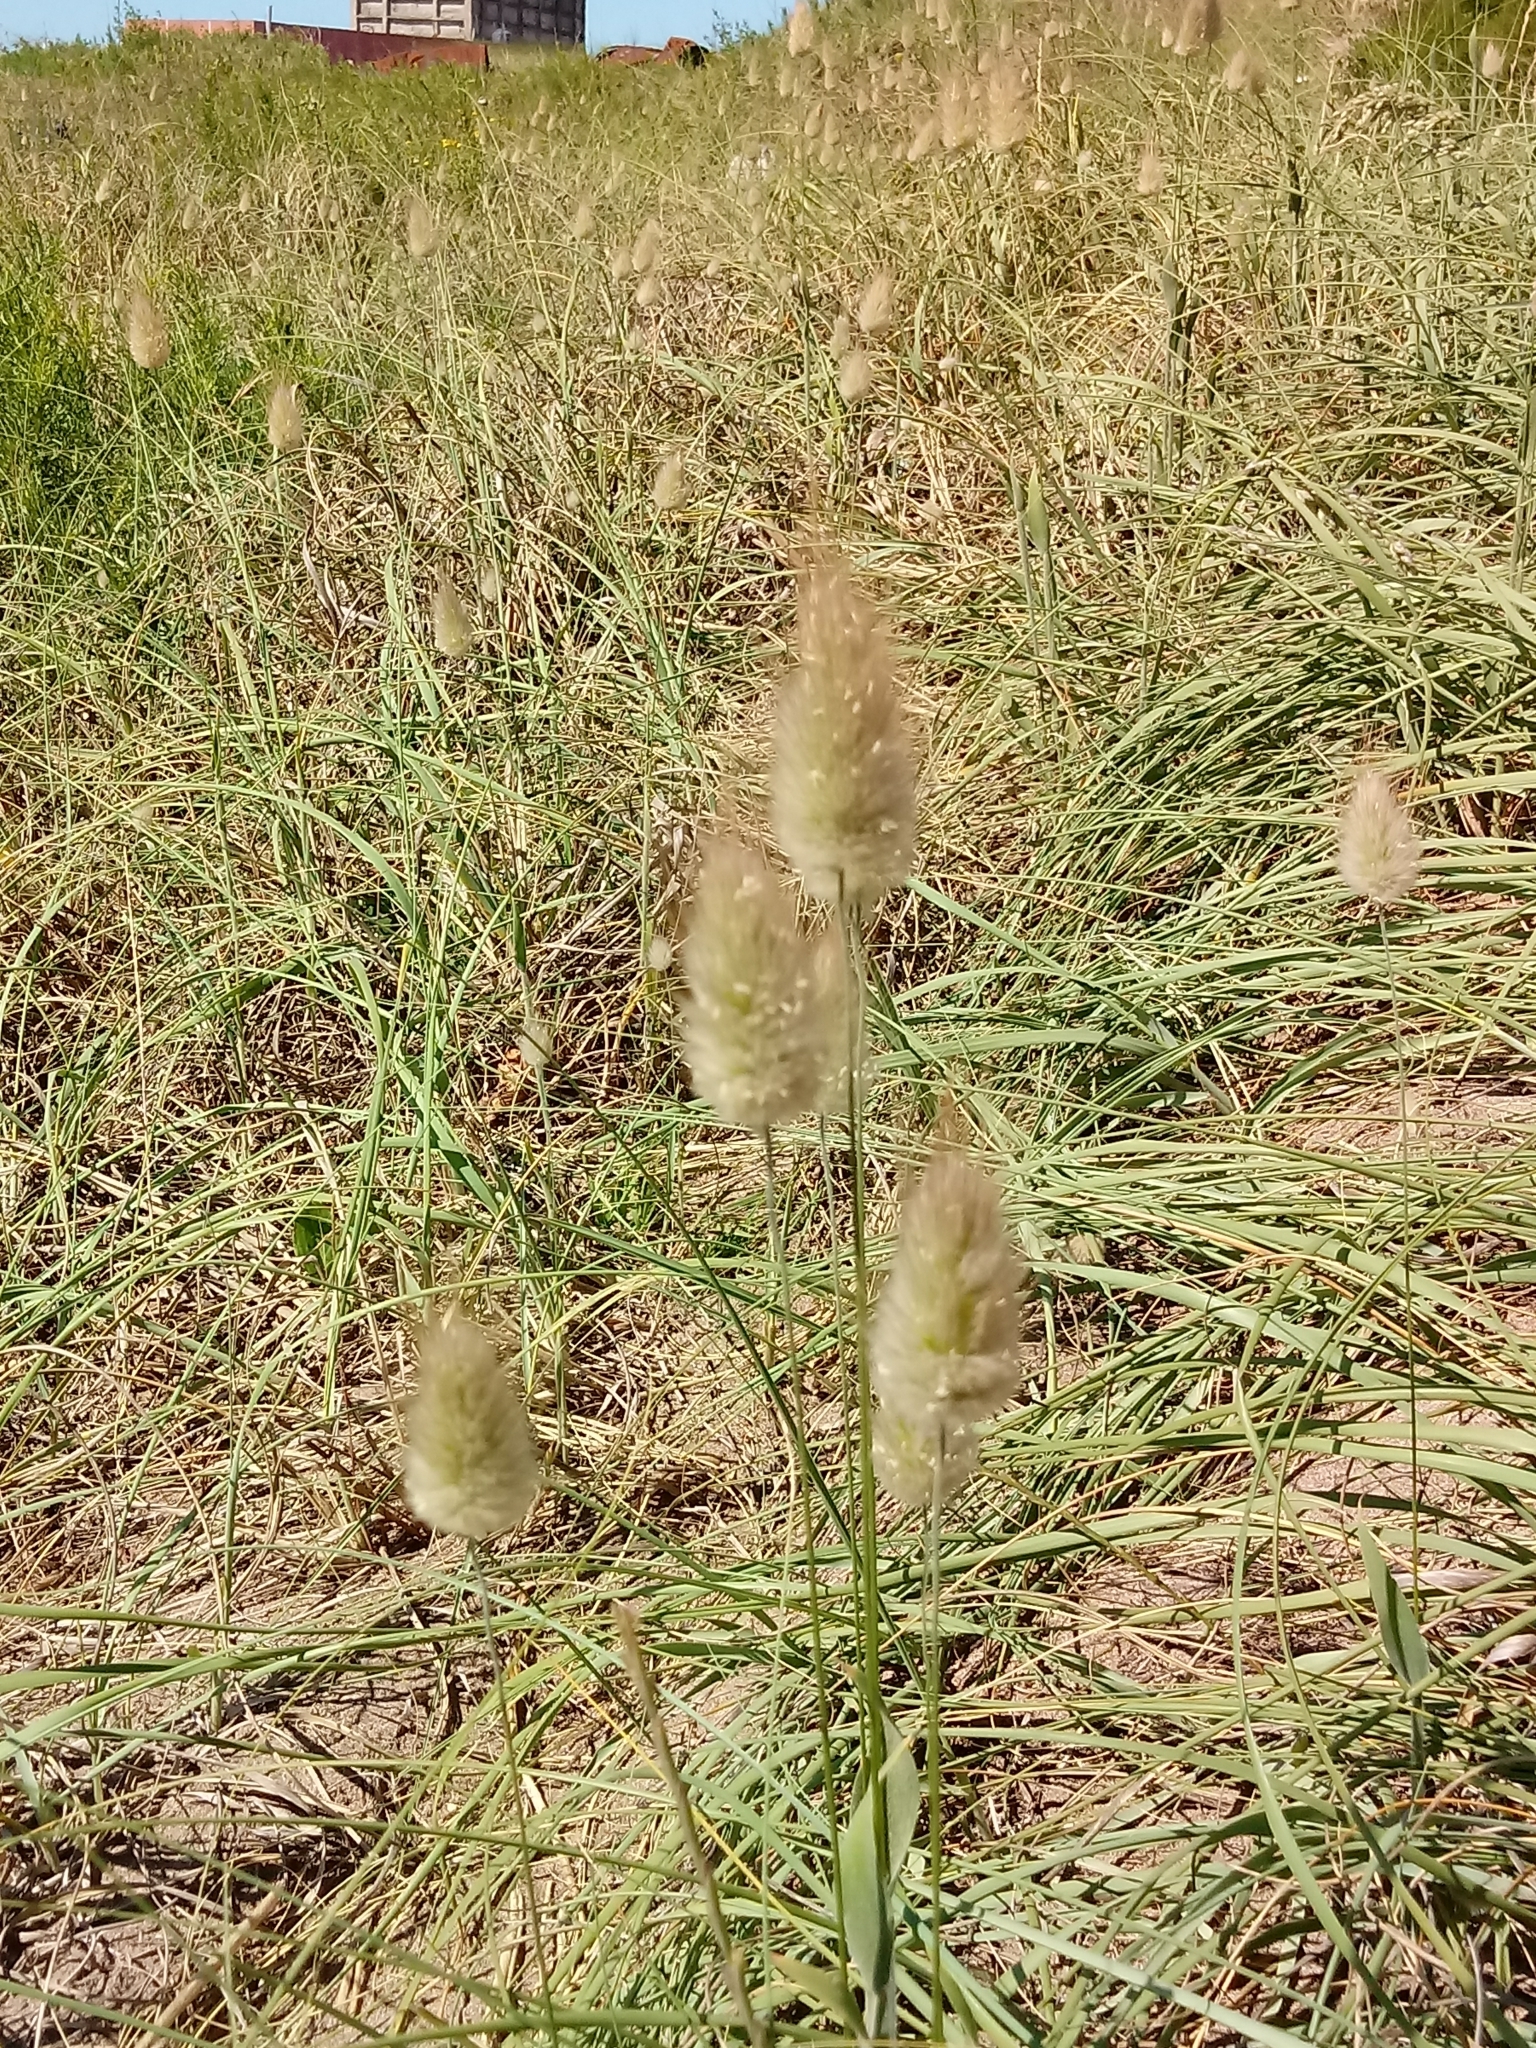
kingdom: Plantae
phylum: Tracheophyta
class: Liliopsida
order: Poales
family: Poaceae
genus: Lagurus
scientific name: Lagurus ovatus
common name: Hare's-tail
